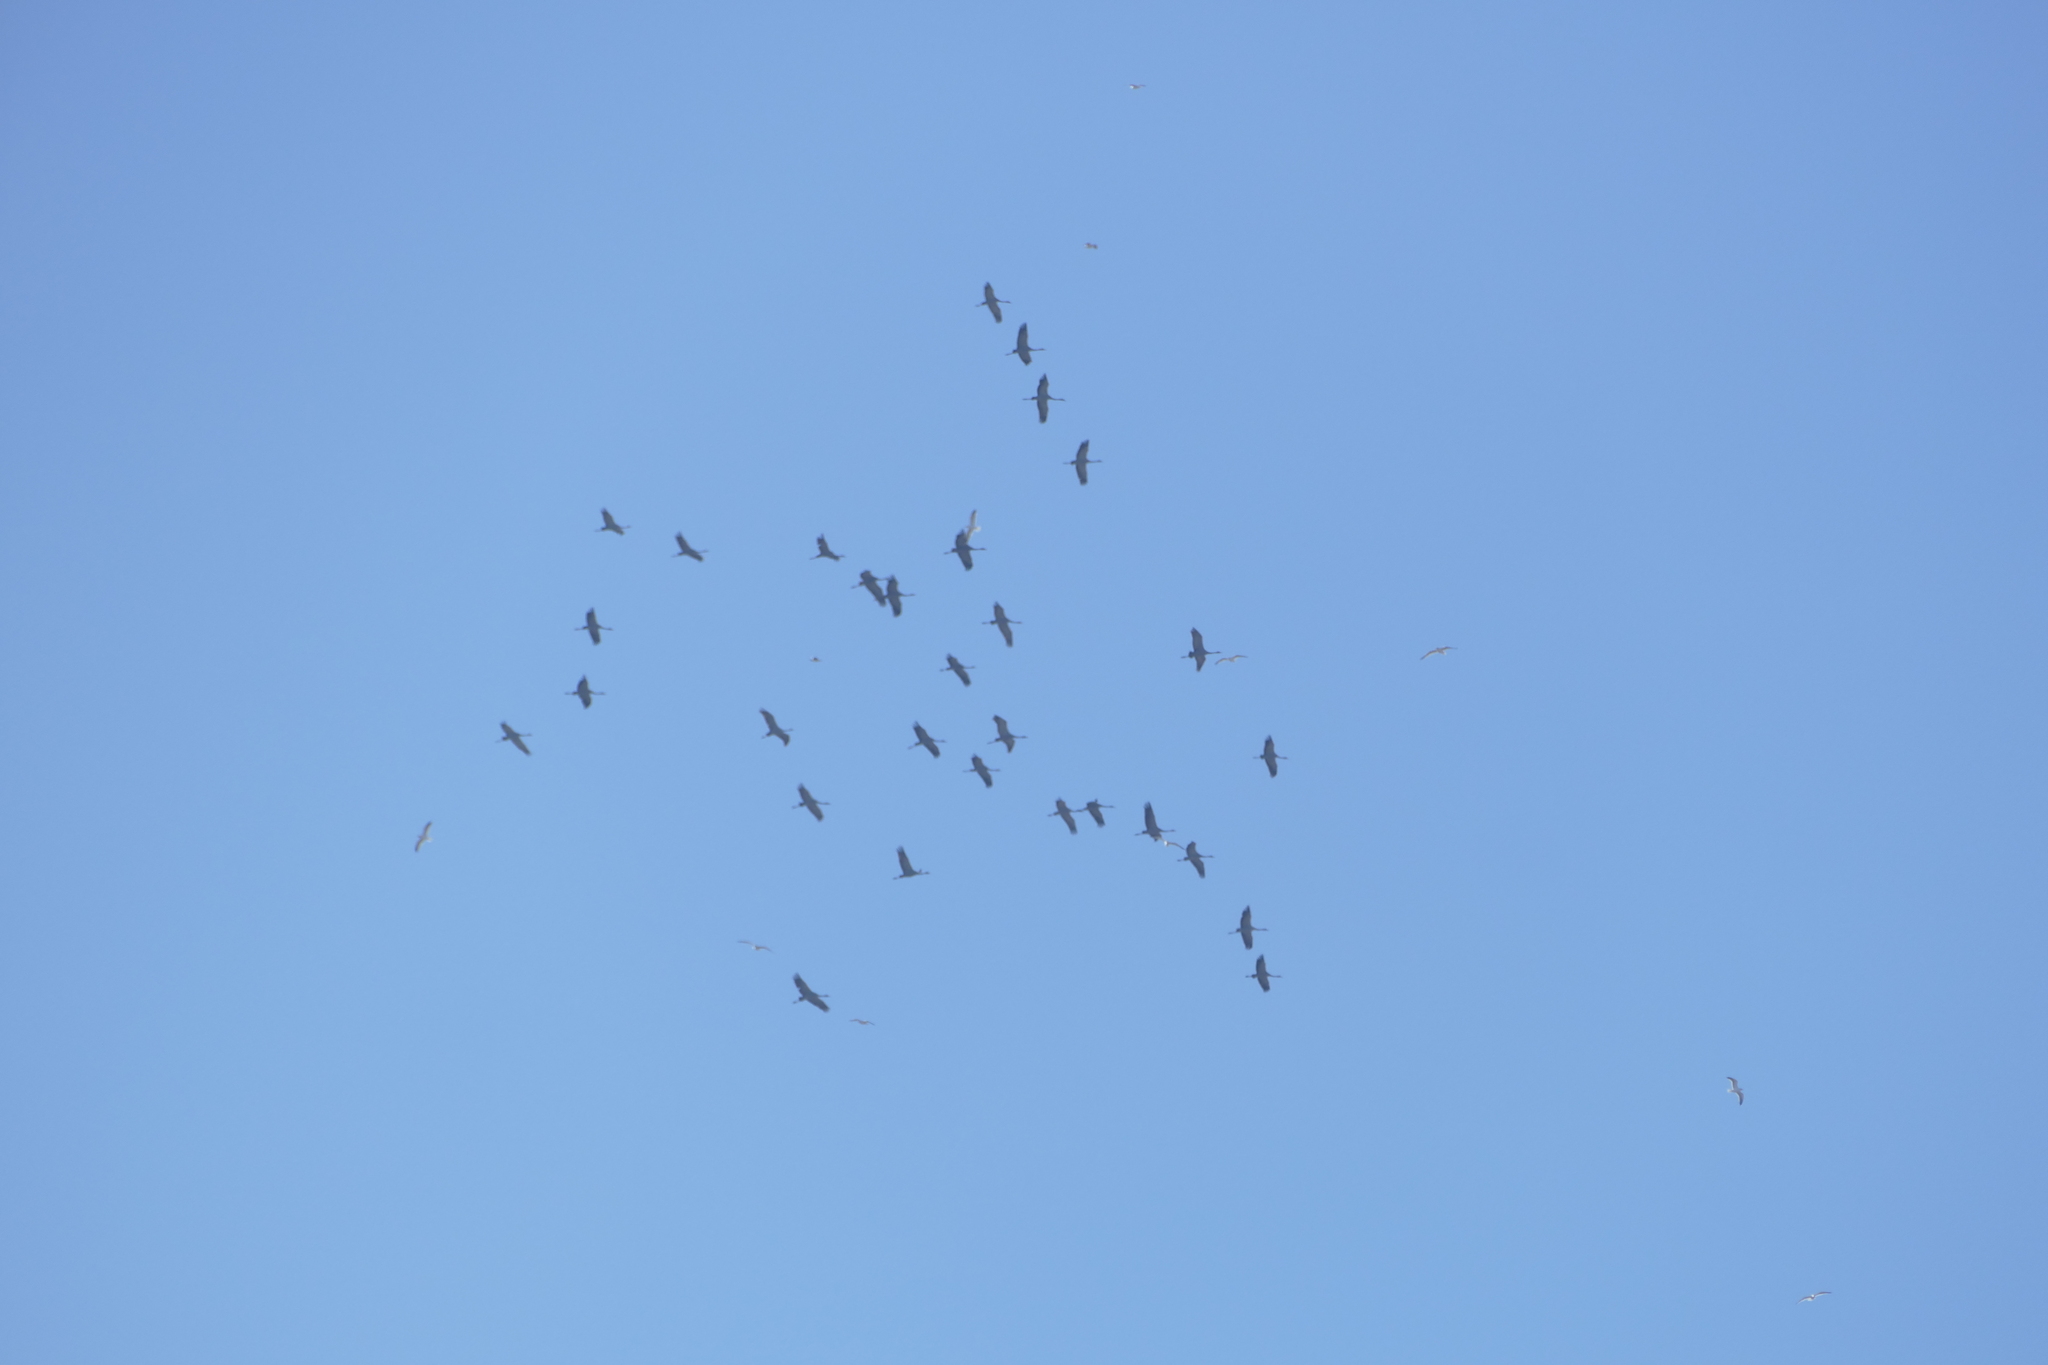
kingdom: Animalia
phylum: Chordata
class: Aves
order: Gruiformes
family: Gruidae
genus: Grus
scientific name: Grus grus
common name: Common crane
